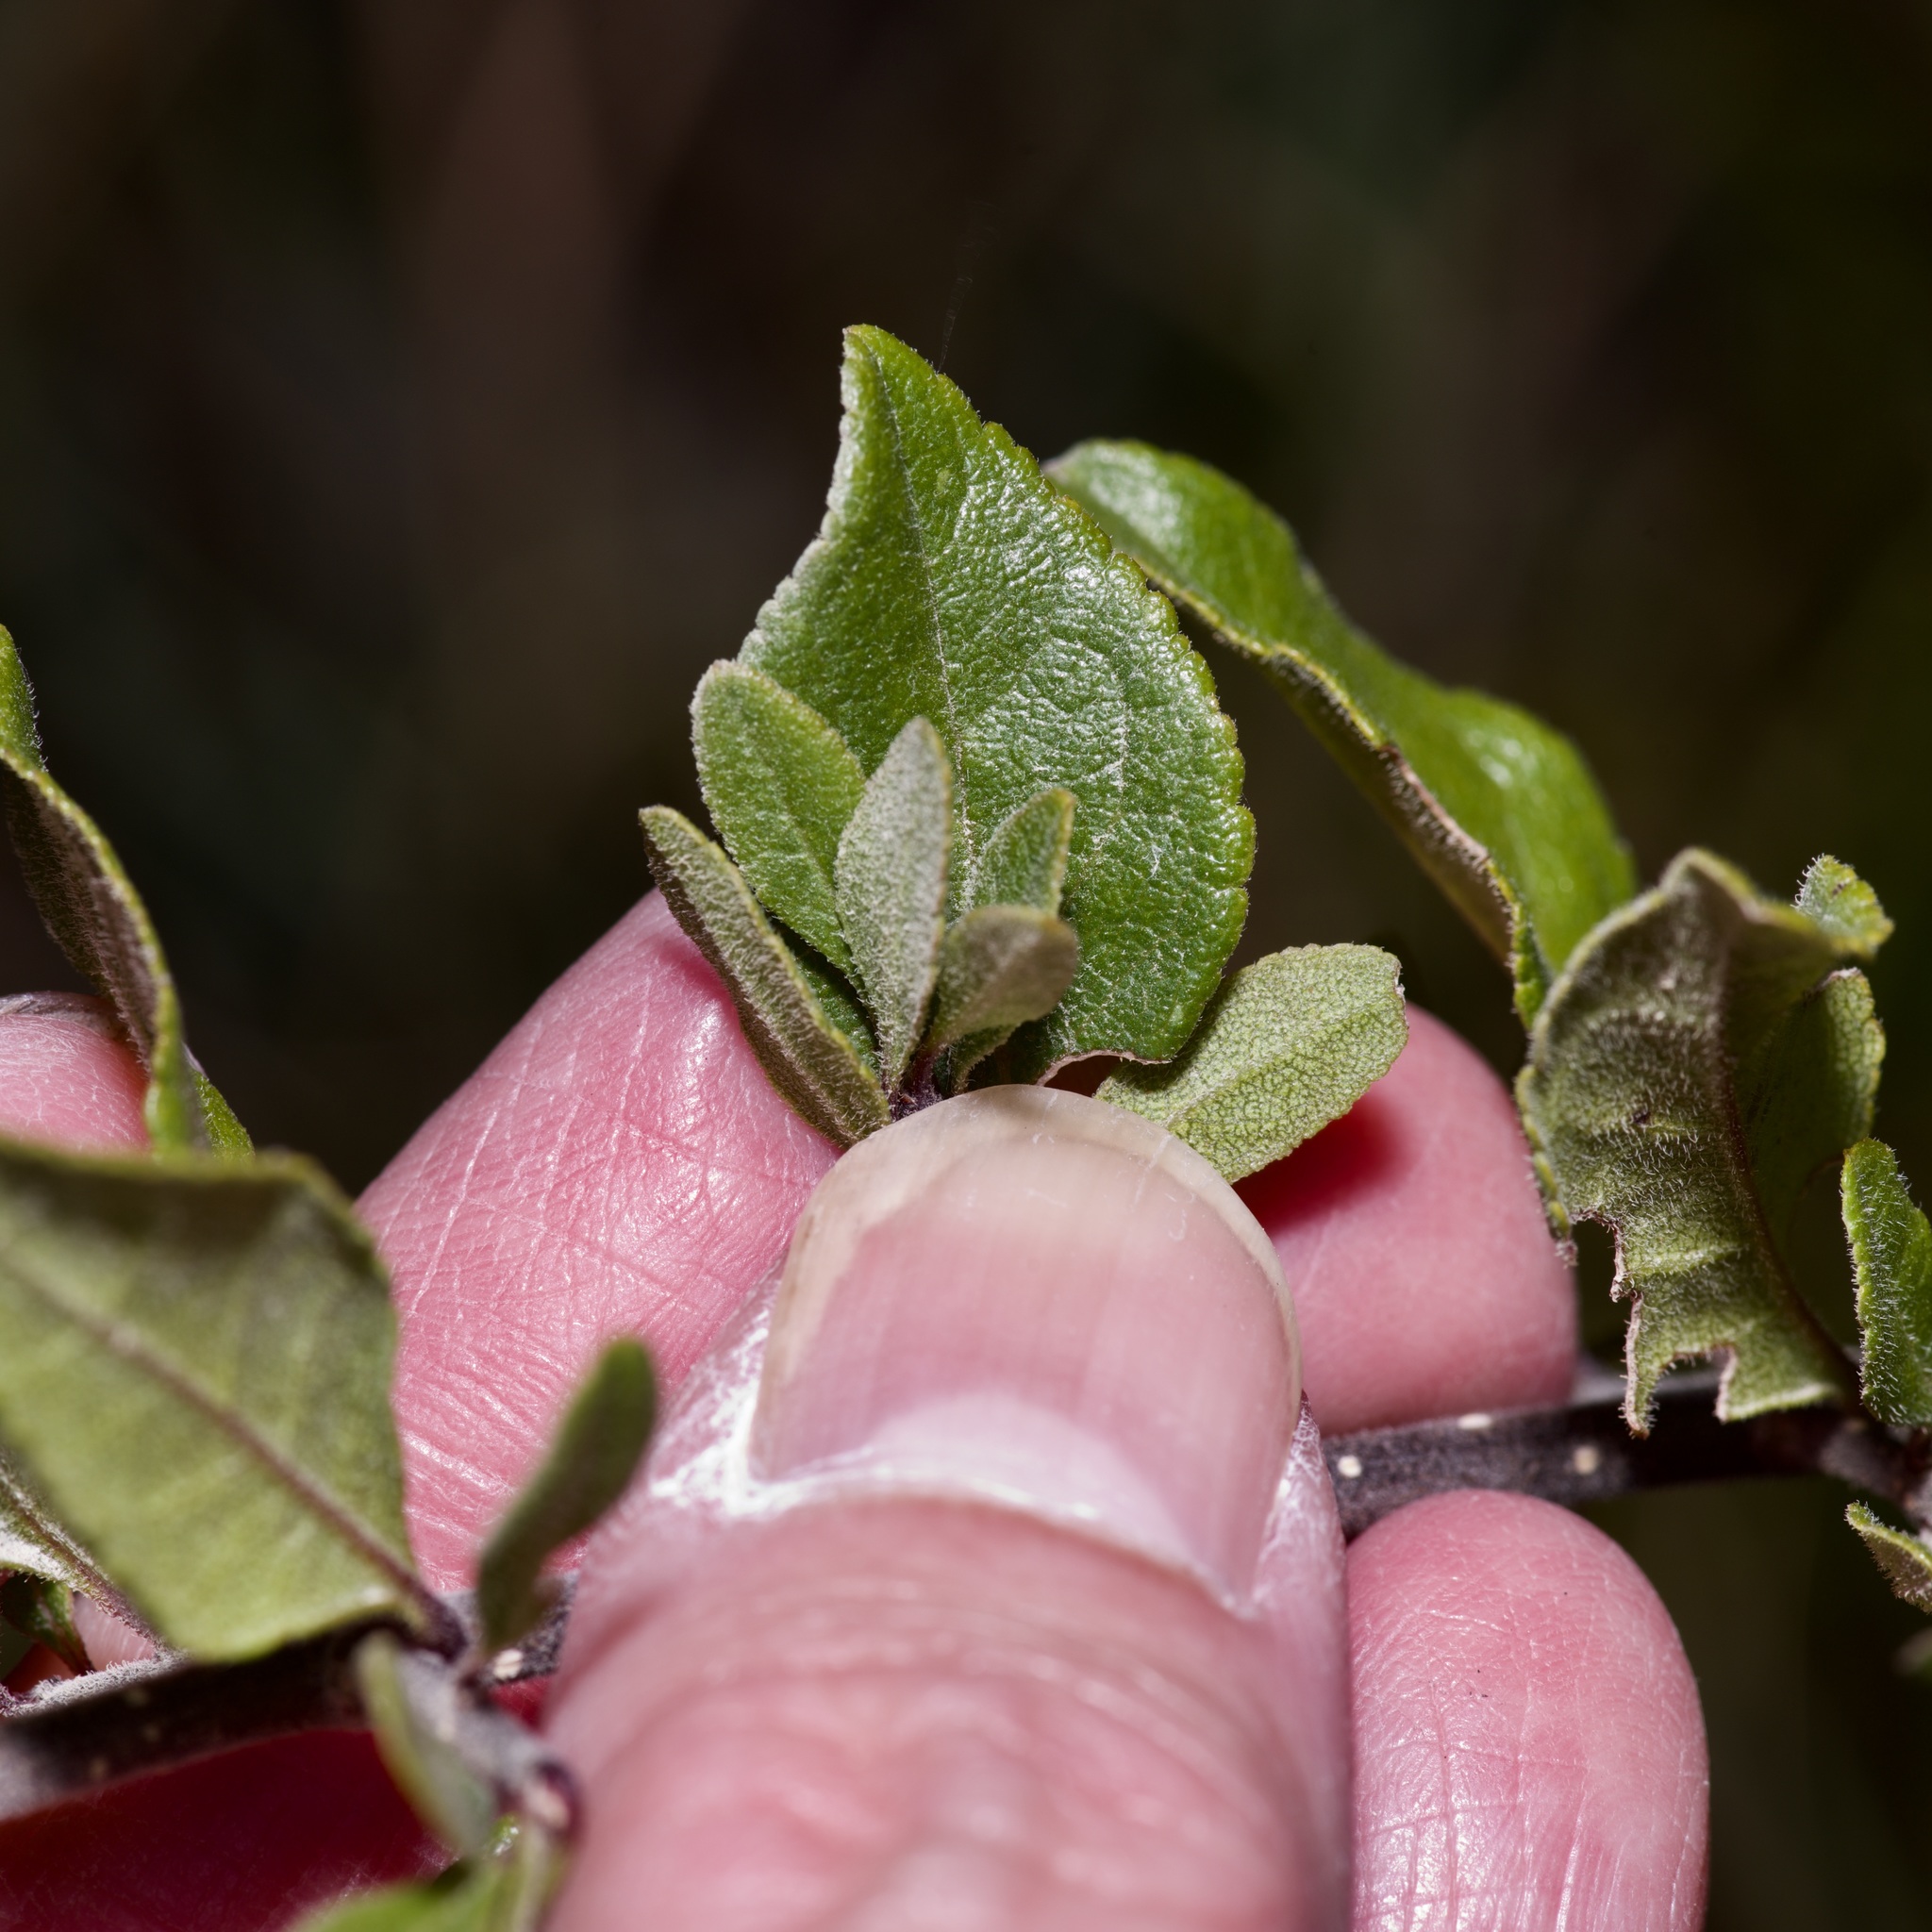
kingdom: Plantae
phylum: Tracheophyta
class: Magnoliopsida
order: Lamiales
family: Oleaceae
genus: Forestiera
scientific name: Forestiera pubescens
